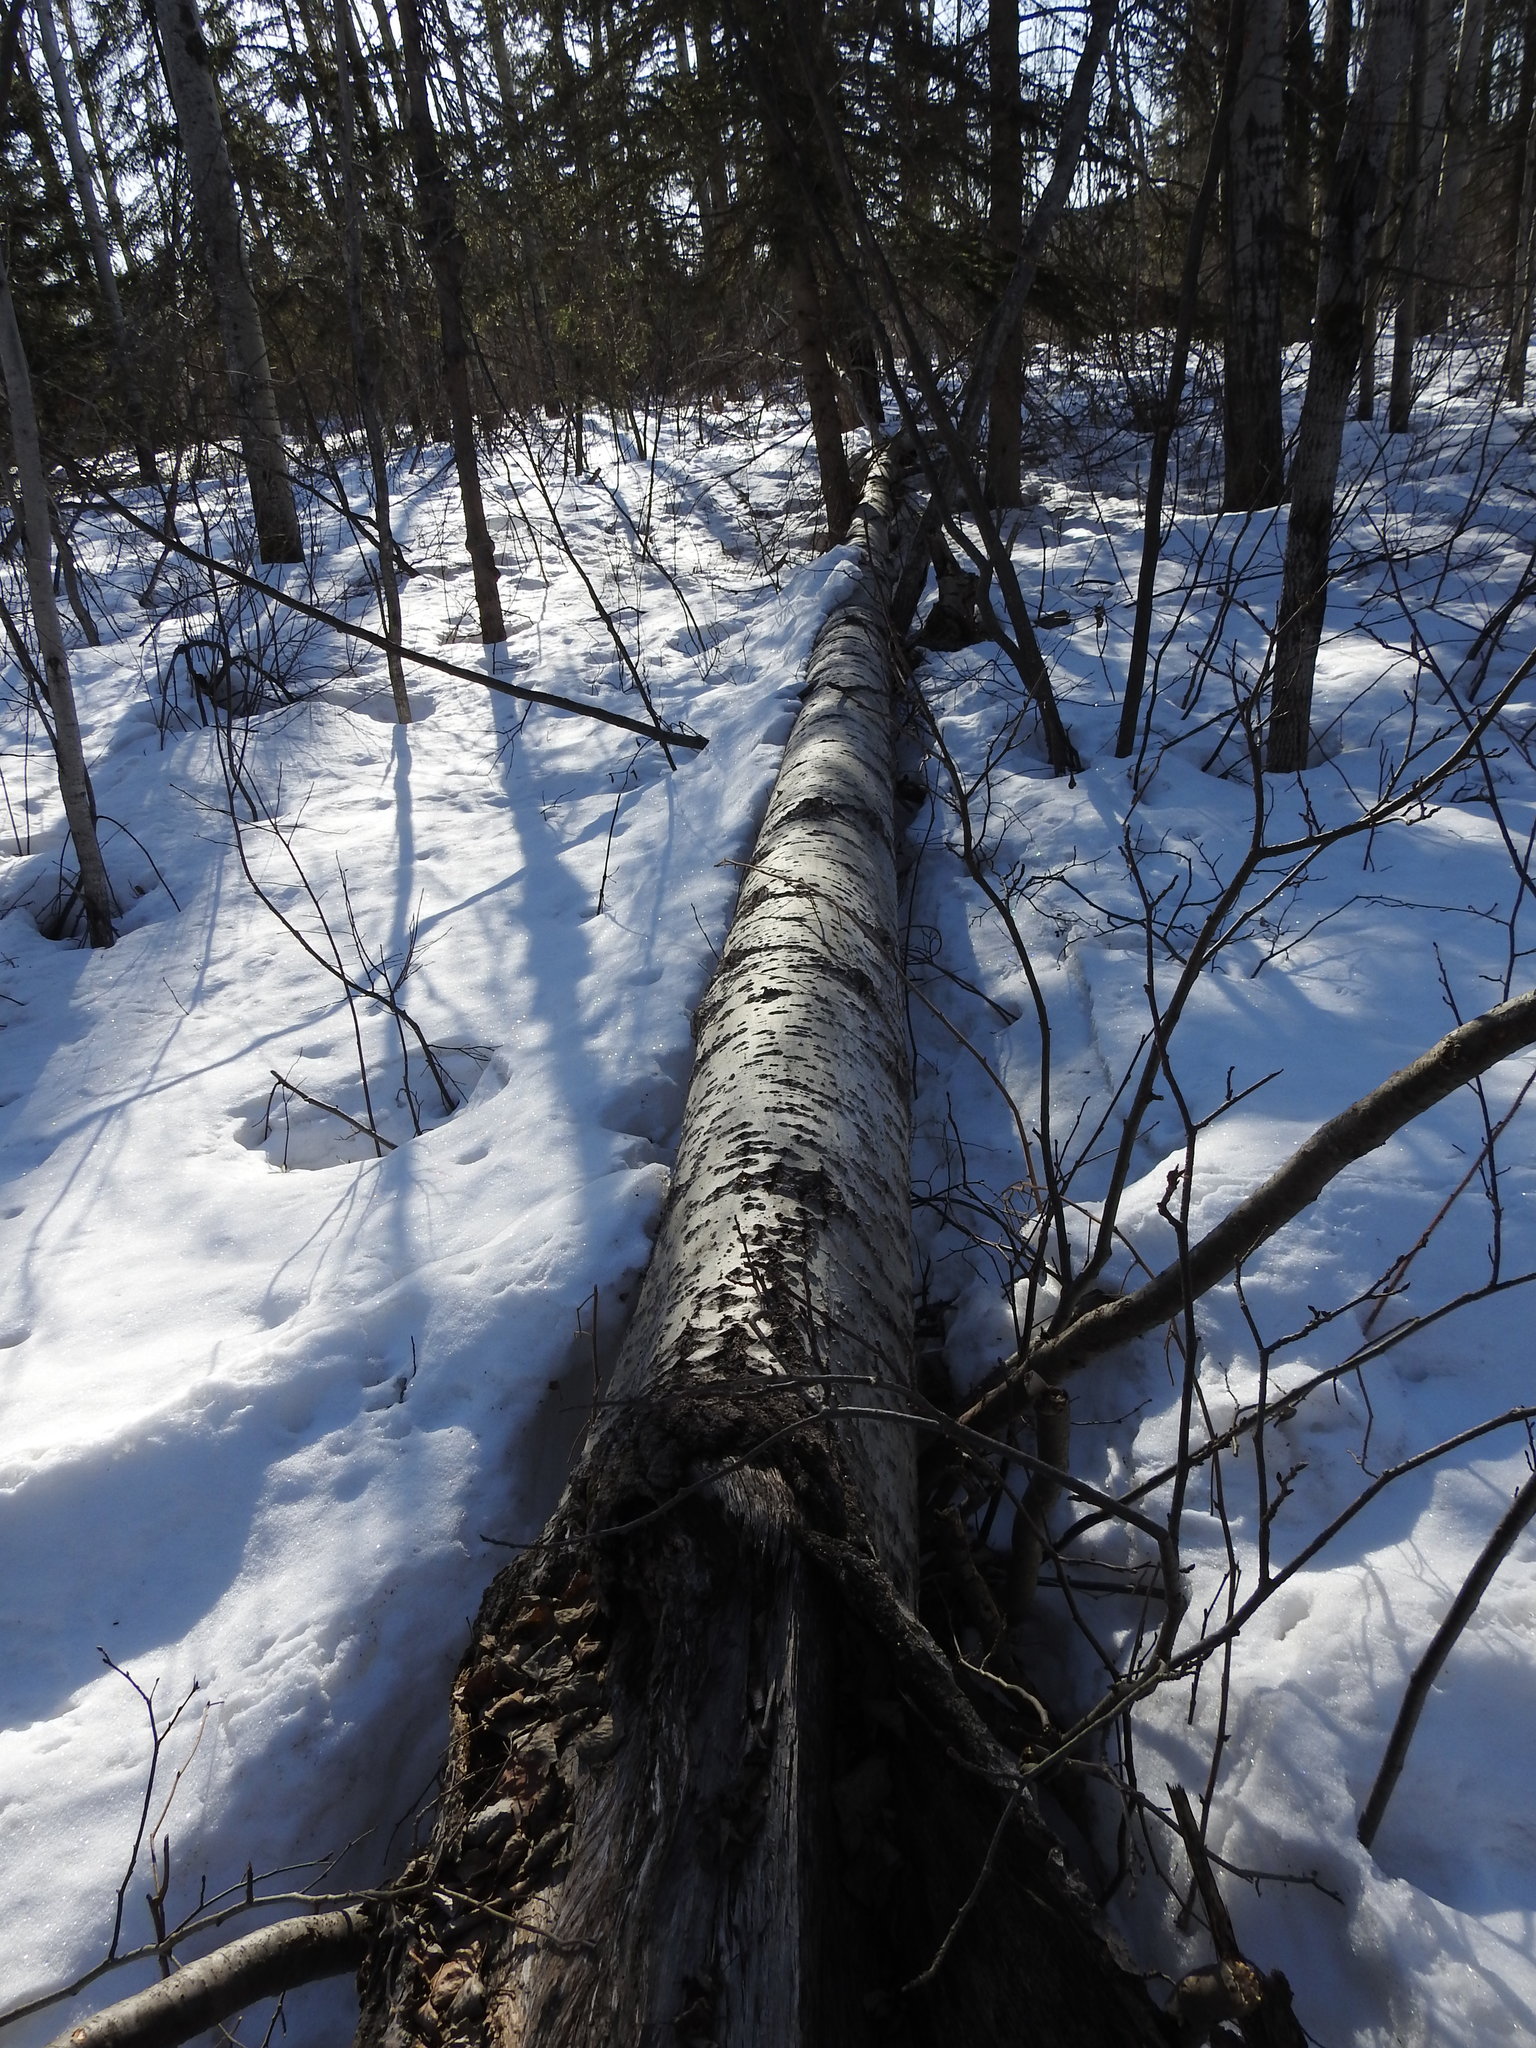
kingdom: Plantae
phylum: Tracheophyta
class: Magnoliopsida
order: Malpighiales
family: Salicaceae
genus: Populus
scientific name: Populus tremuloides
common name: Quaking aspen
